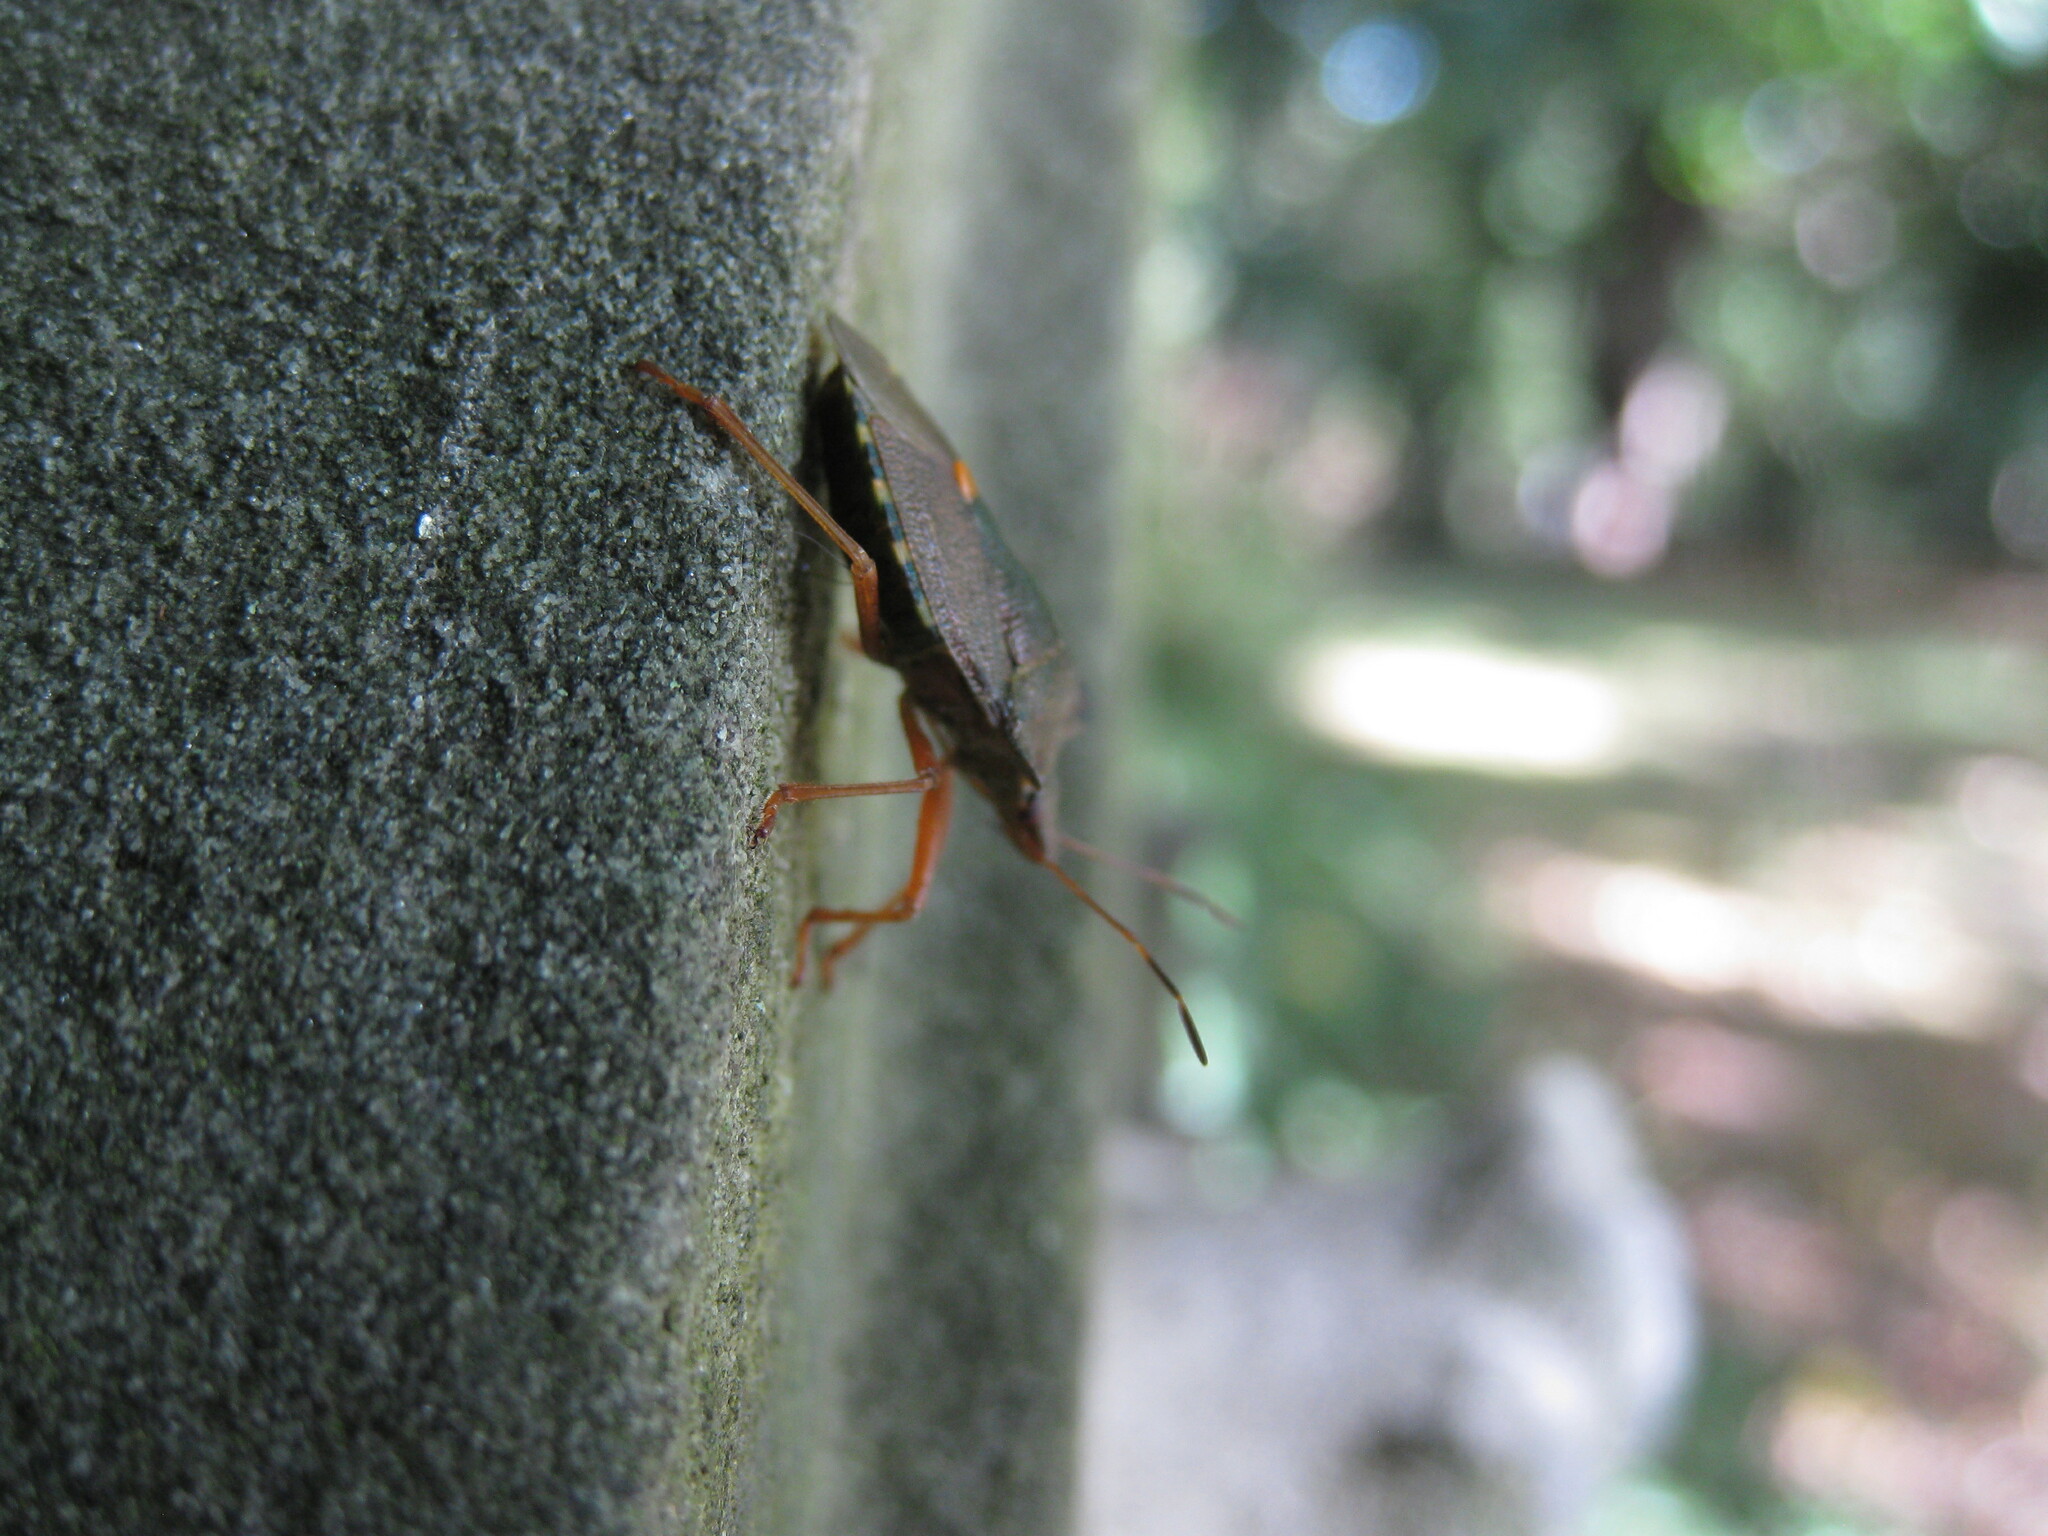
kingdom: Animalia
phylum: Arthropoda
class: Insecta
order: Hemiptera
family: Pentatomidae
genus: Pentatoma
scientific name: Pentatoma rufipes
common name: Forest bug
